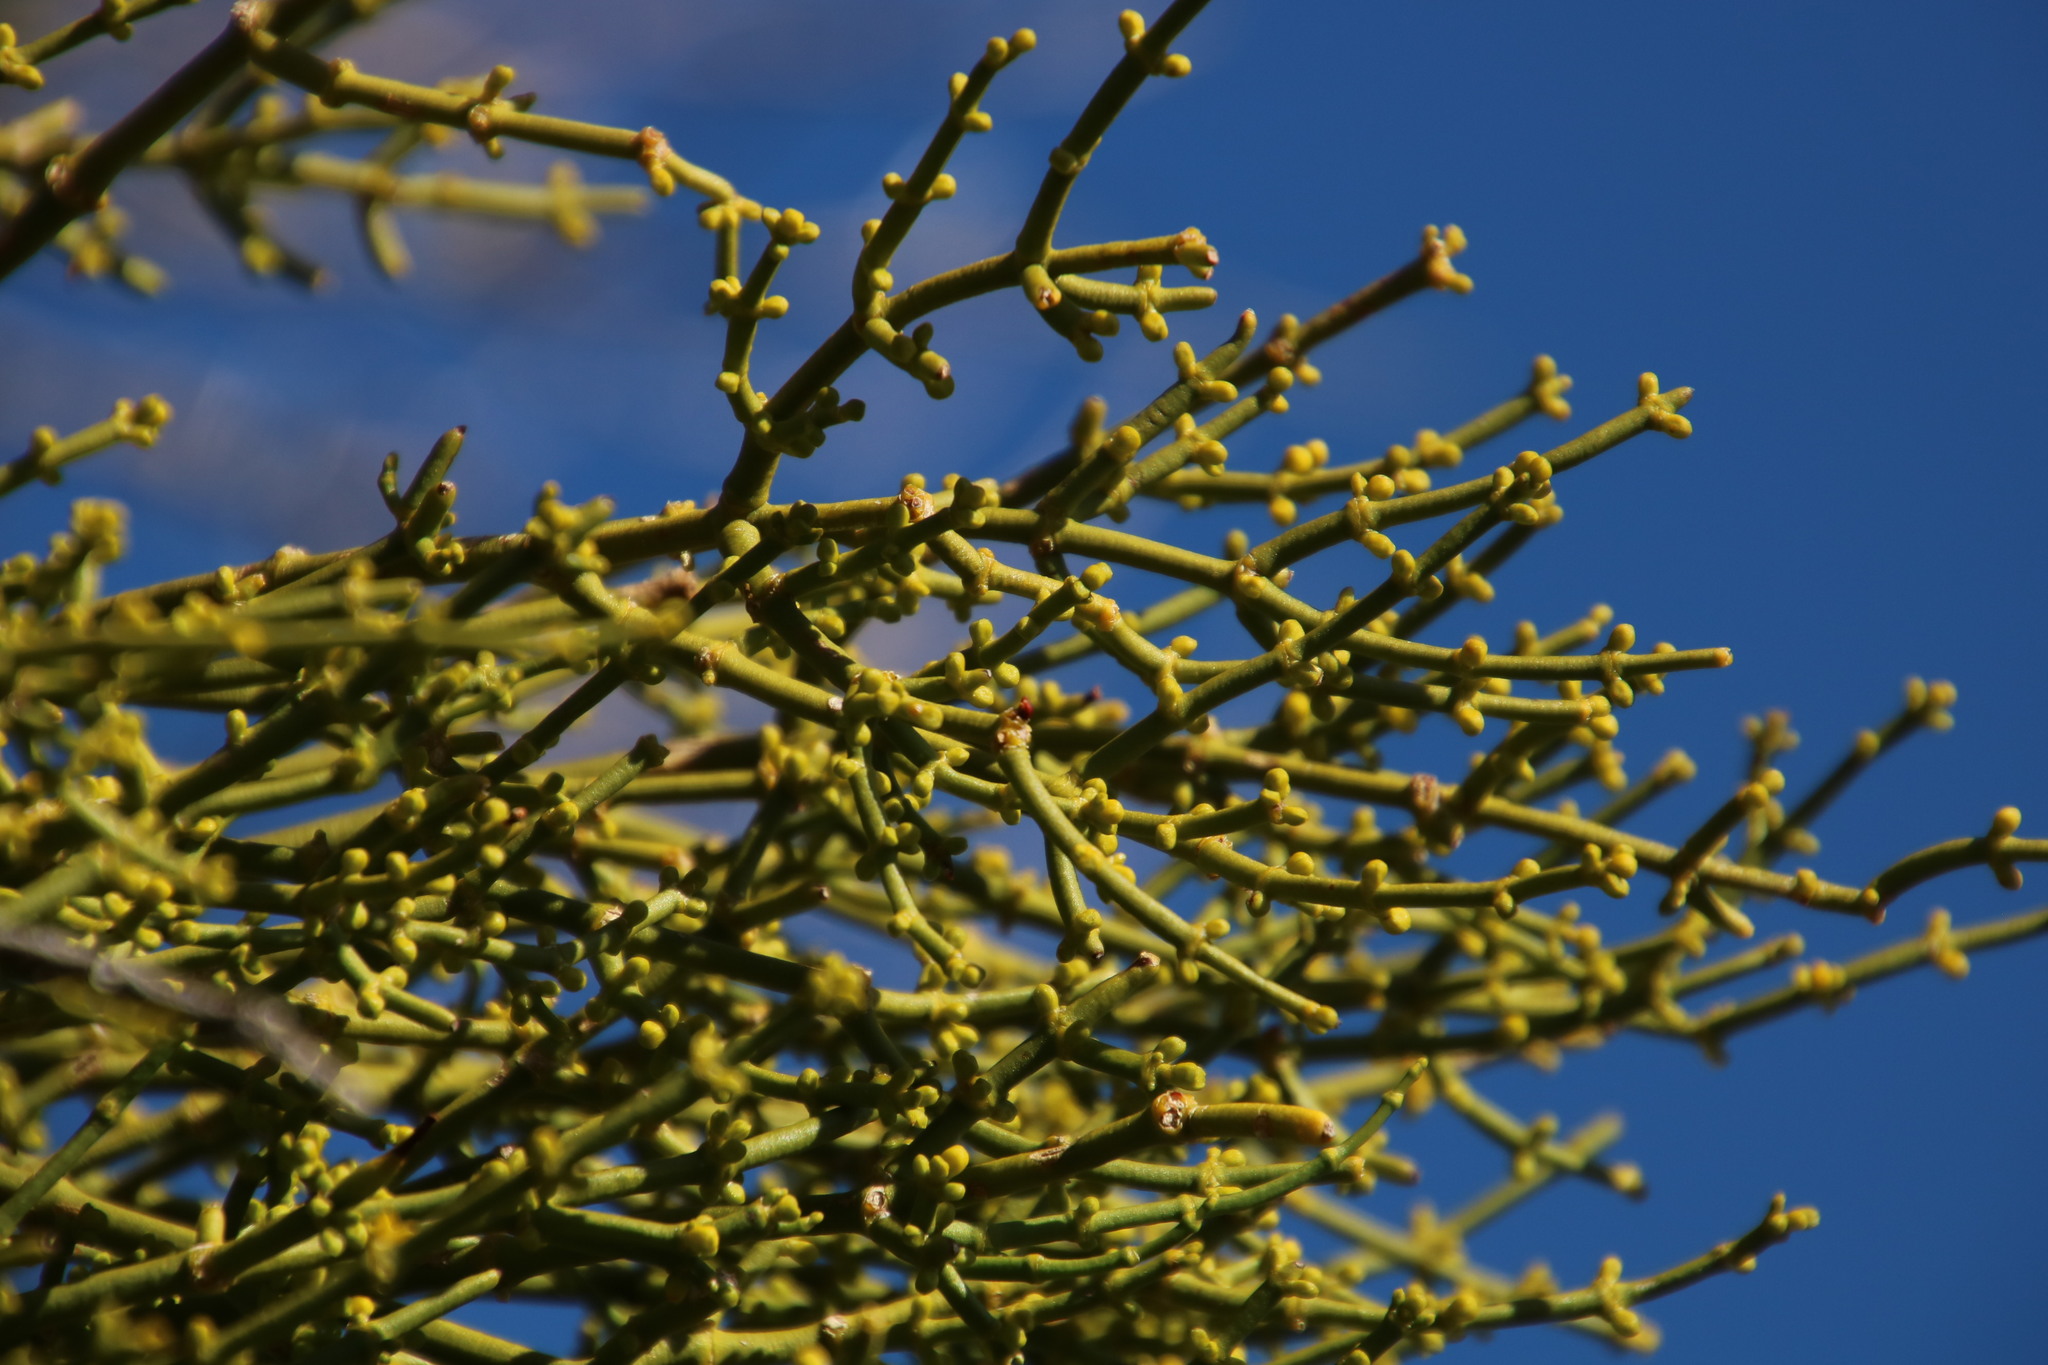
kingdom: Plantae
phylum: Tracheophyta
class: Magnoliopsida
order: Santalales
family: Viscaceae
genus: Viscum
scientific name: Viscum continuum
